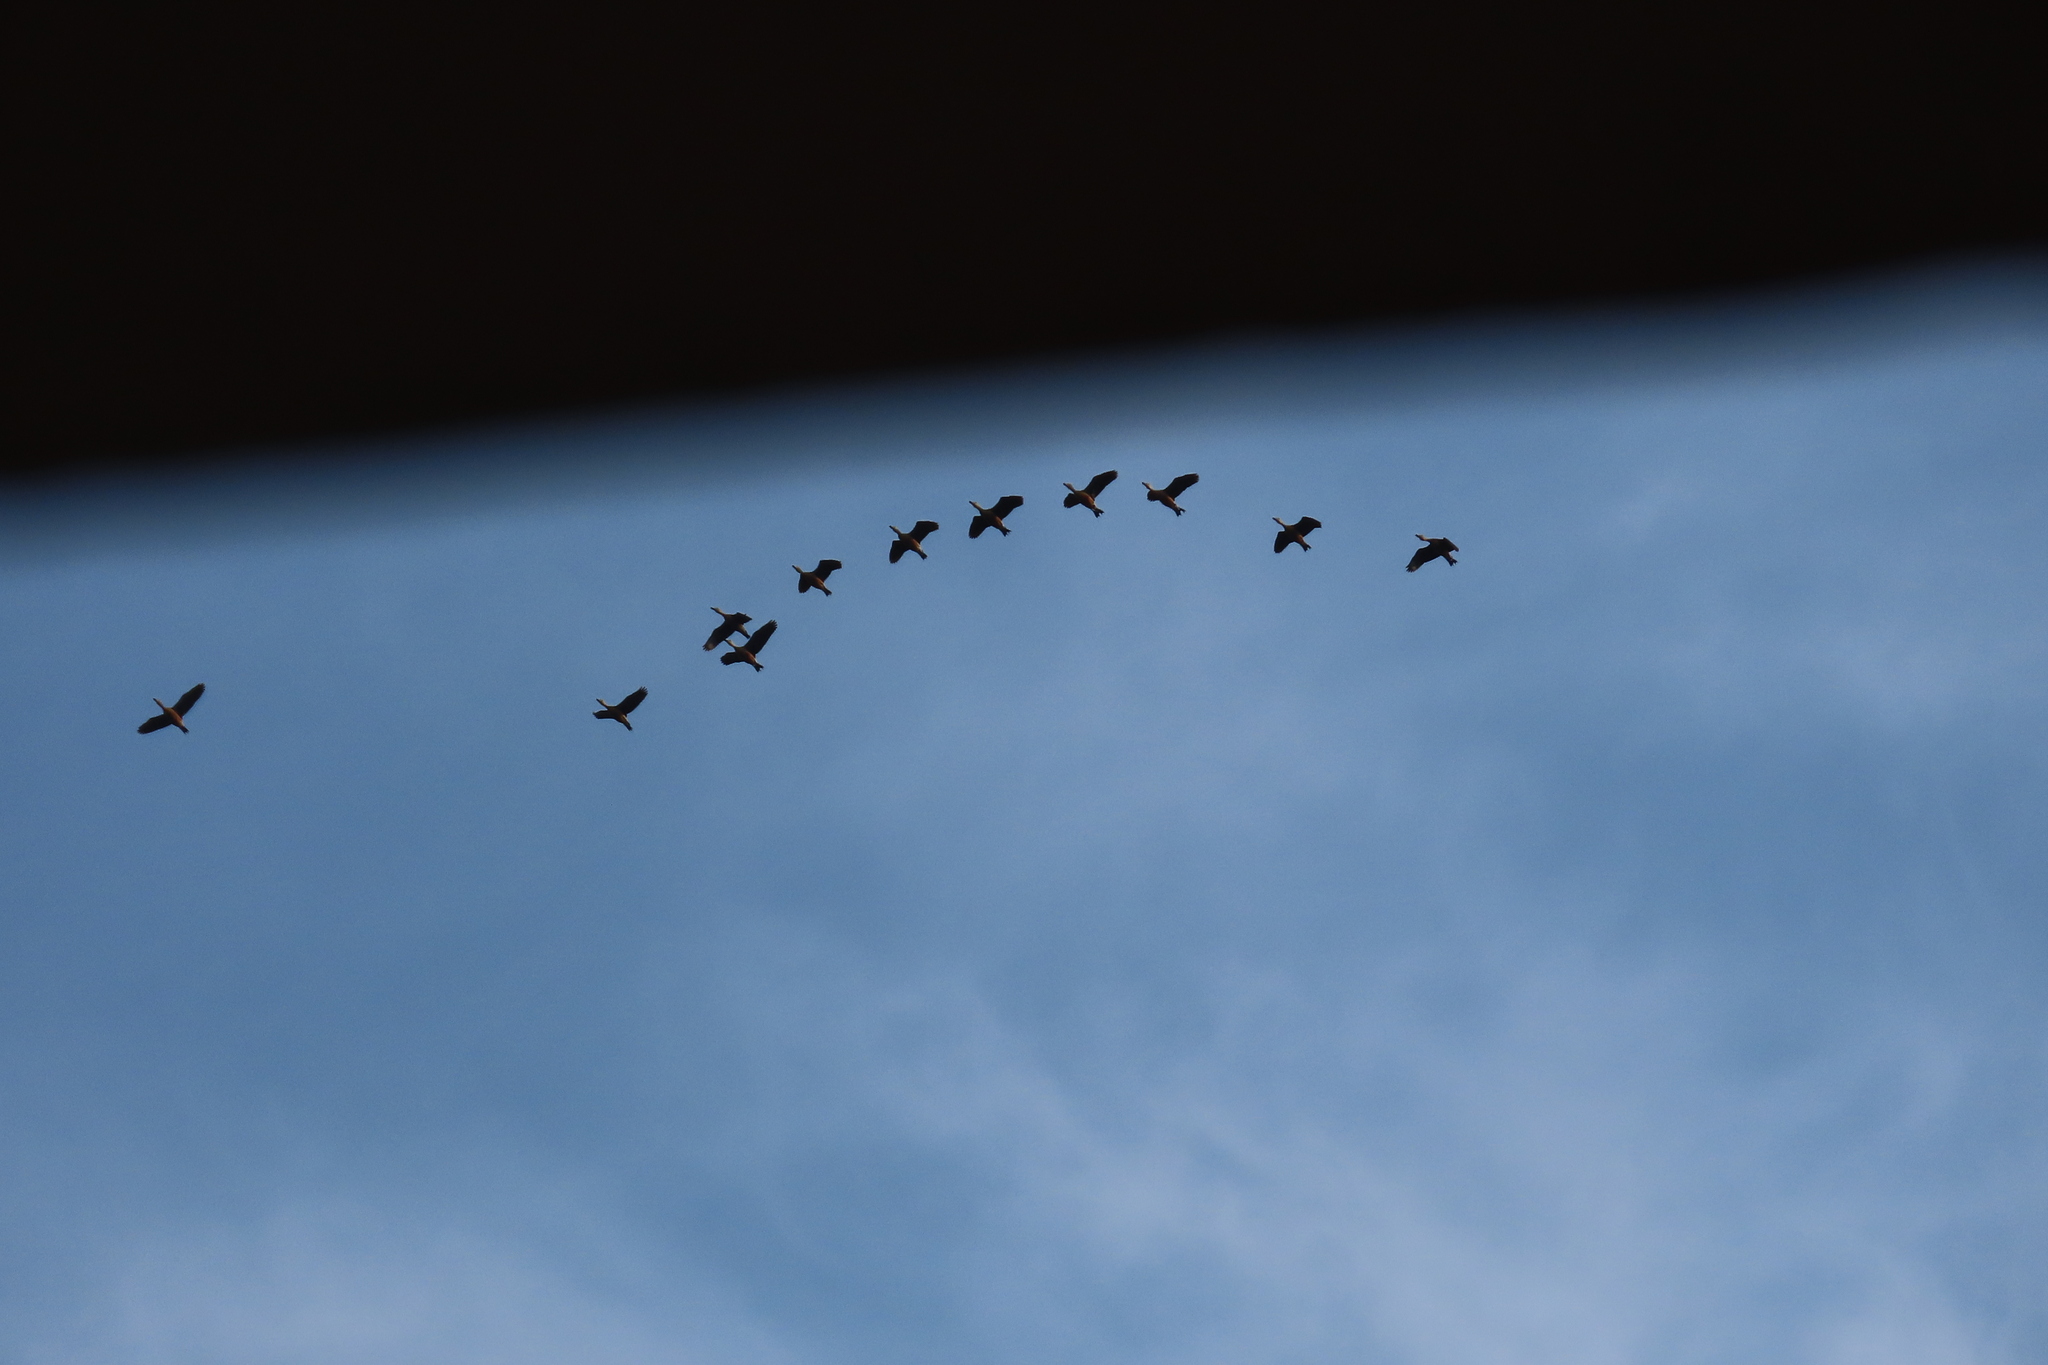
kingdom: Animalia
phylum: Chordata
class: Aves
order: Anseriformes
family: Anatidae
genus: Dendrocygna
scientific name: Dendrocygna javanica
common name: Lesser whistling-duck
